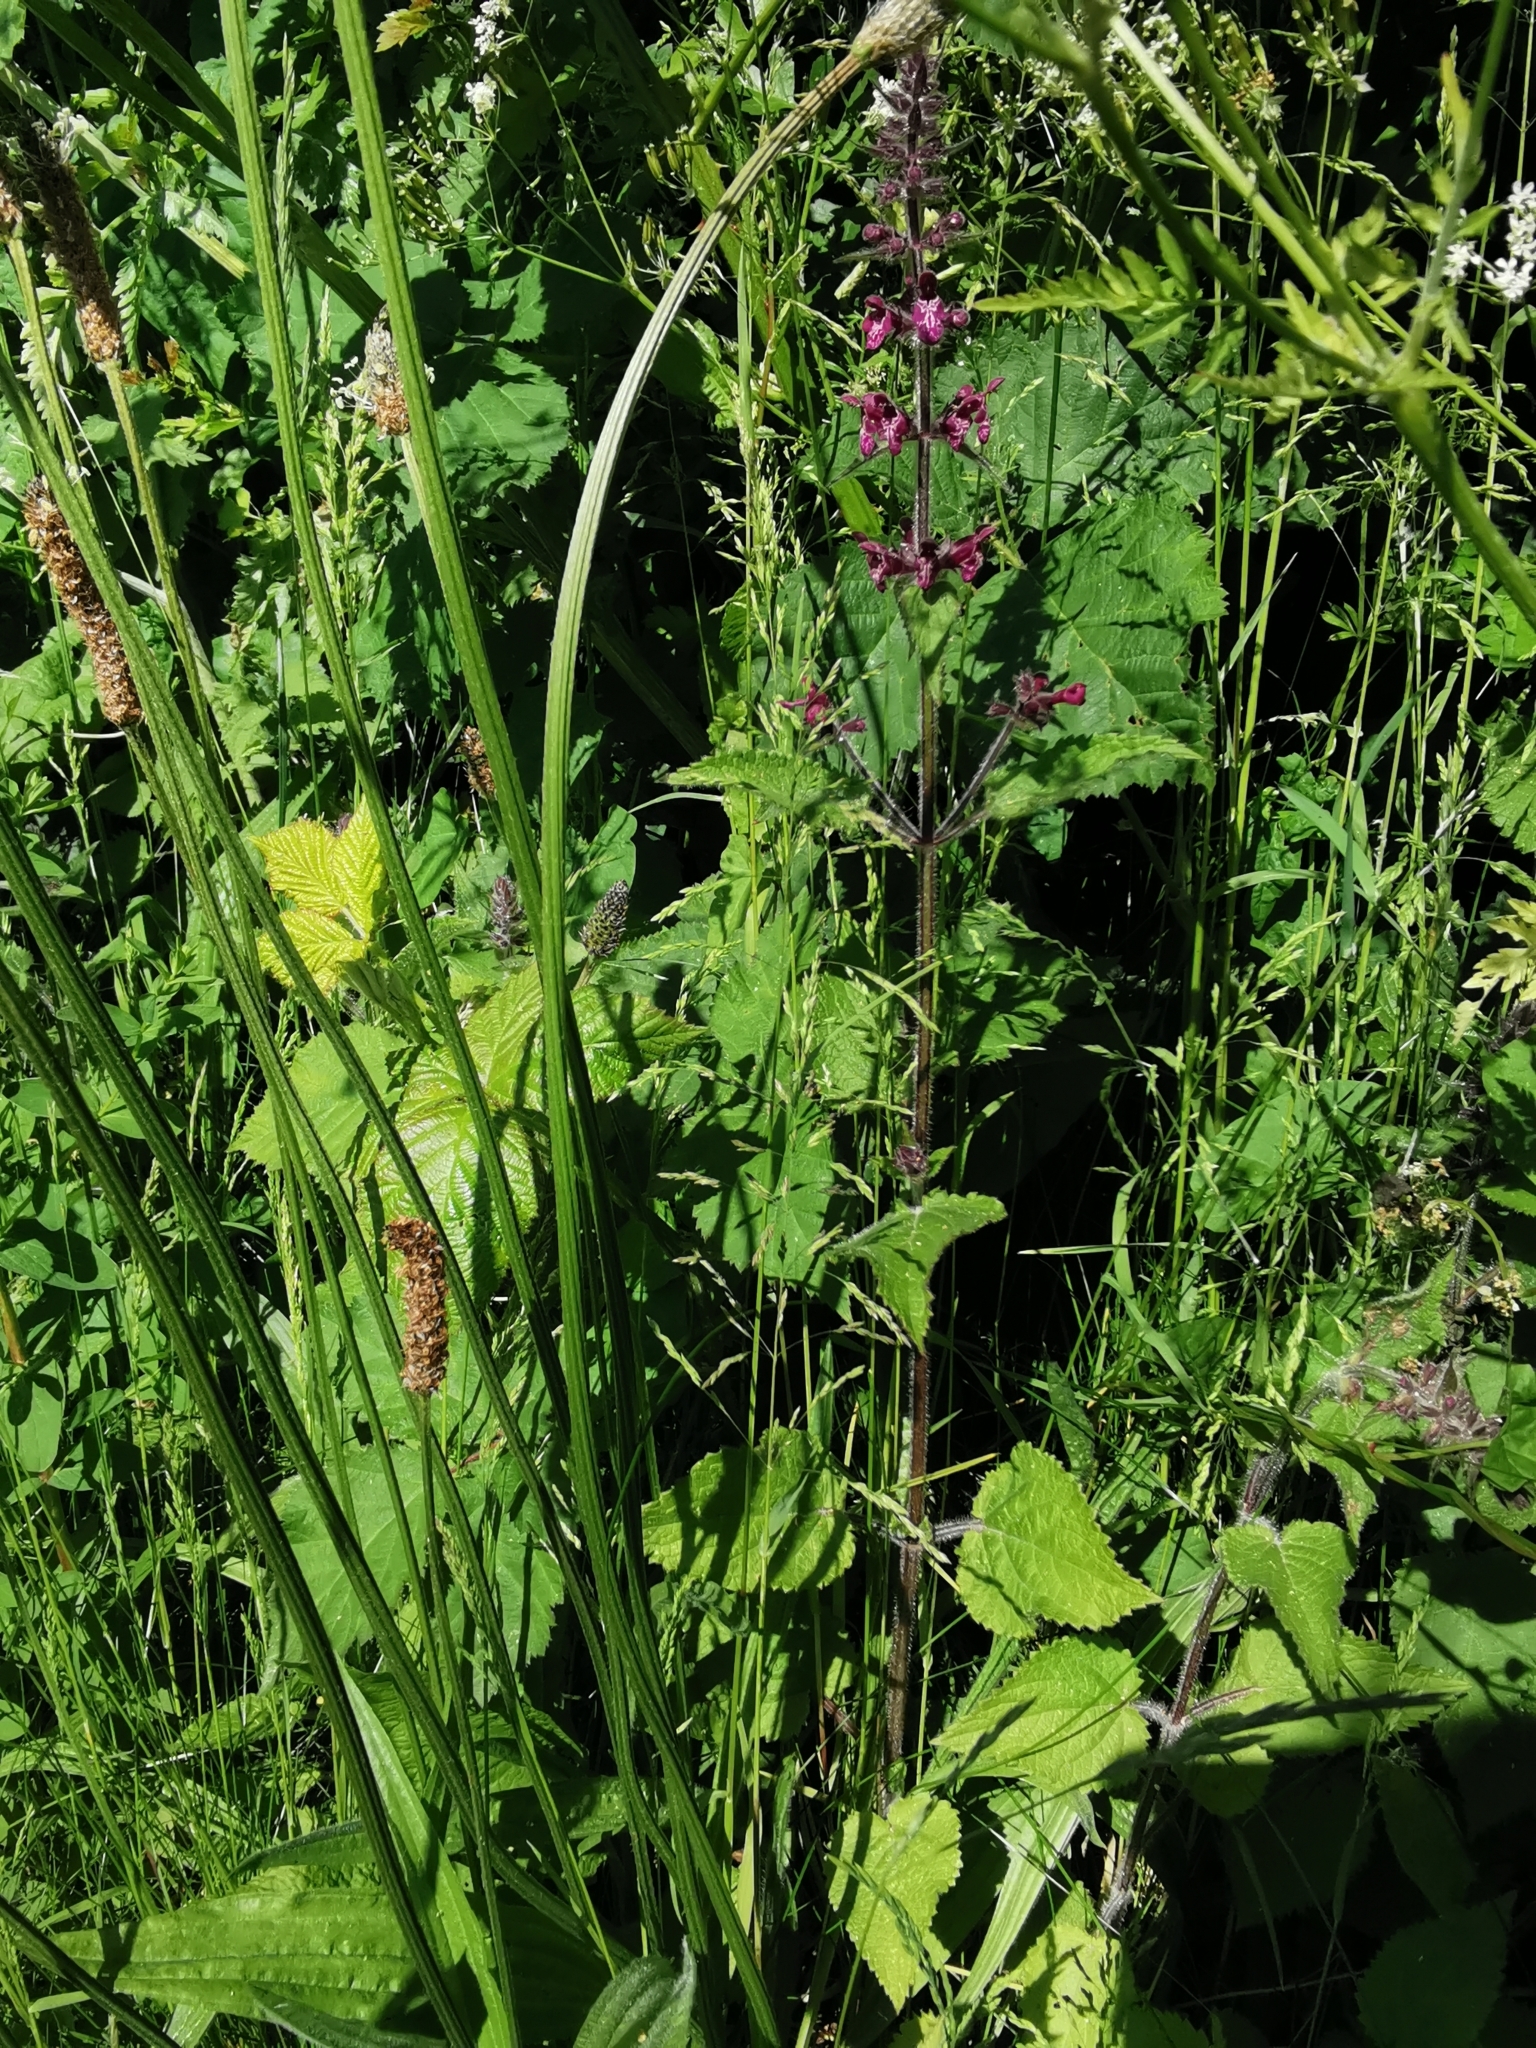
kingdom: Plantae
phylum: Tracheophyta
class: Magnoliopsida
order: Lamiales
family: Lamiaceae
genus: Stachys
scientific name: Stachys sylvatica
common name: Hedge woundwort
